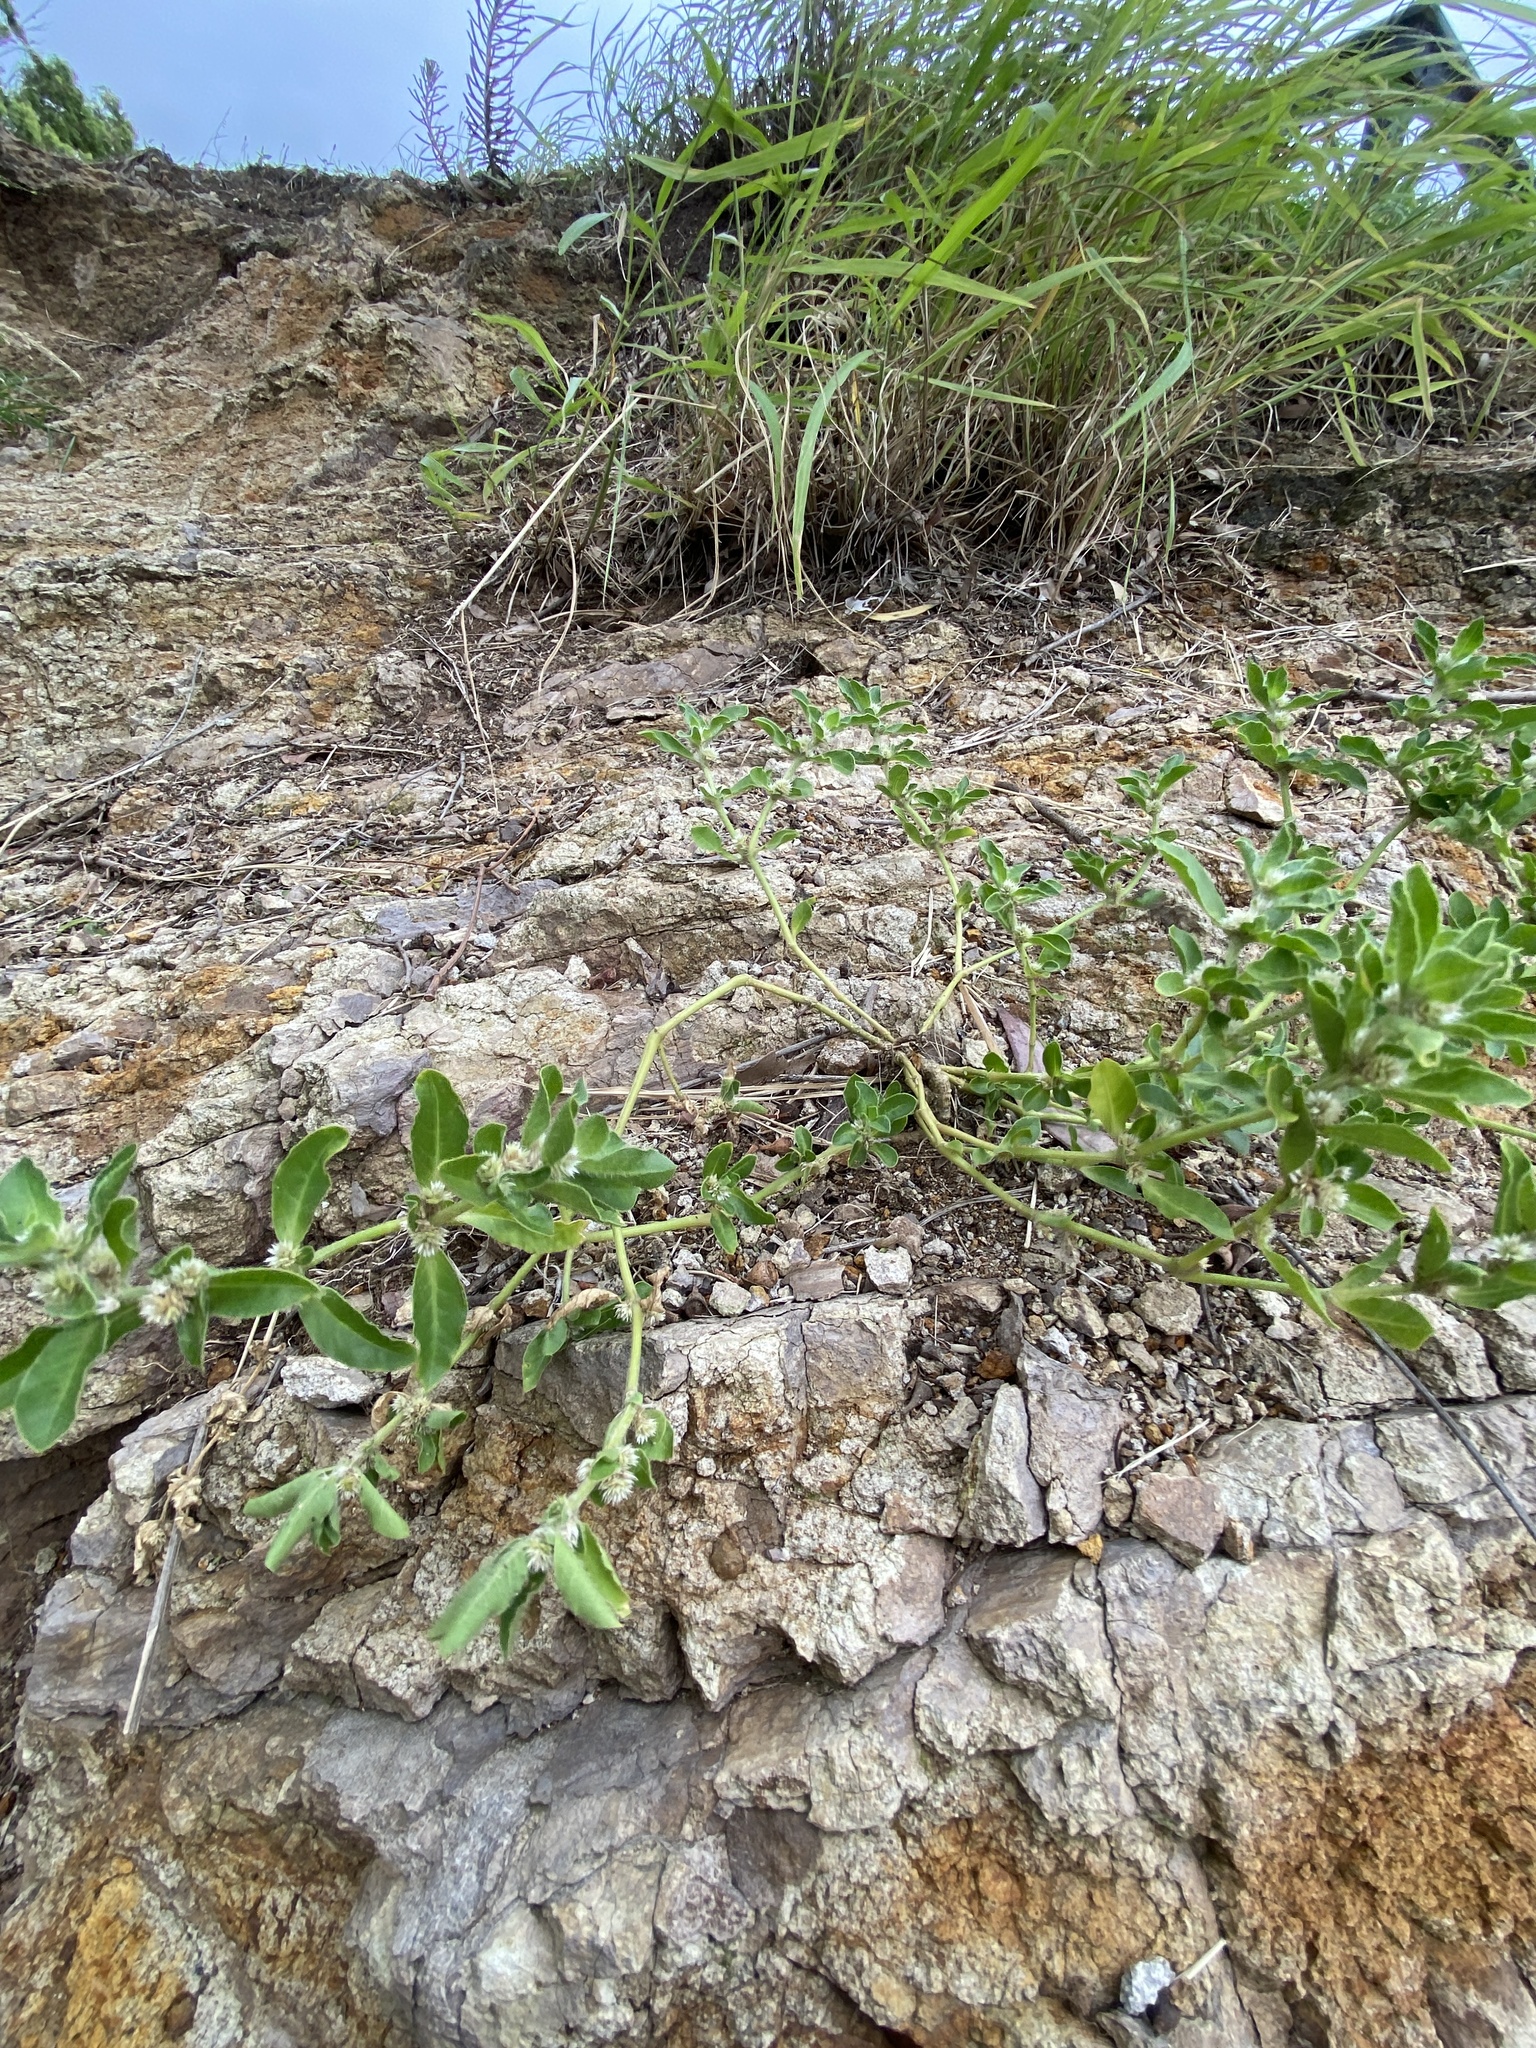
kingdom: Plantae
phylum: Tracheophyta
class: Magnoliopsida
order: Caryophyllales
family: Amaranthaceae
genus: Alternanthera
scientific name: Alternanthera nana
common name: Hairy joyweed
